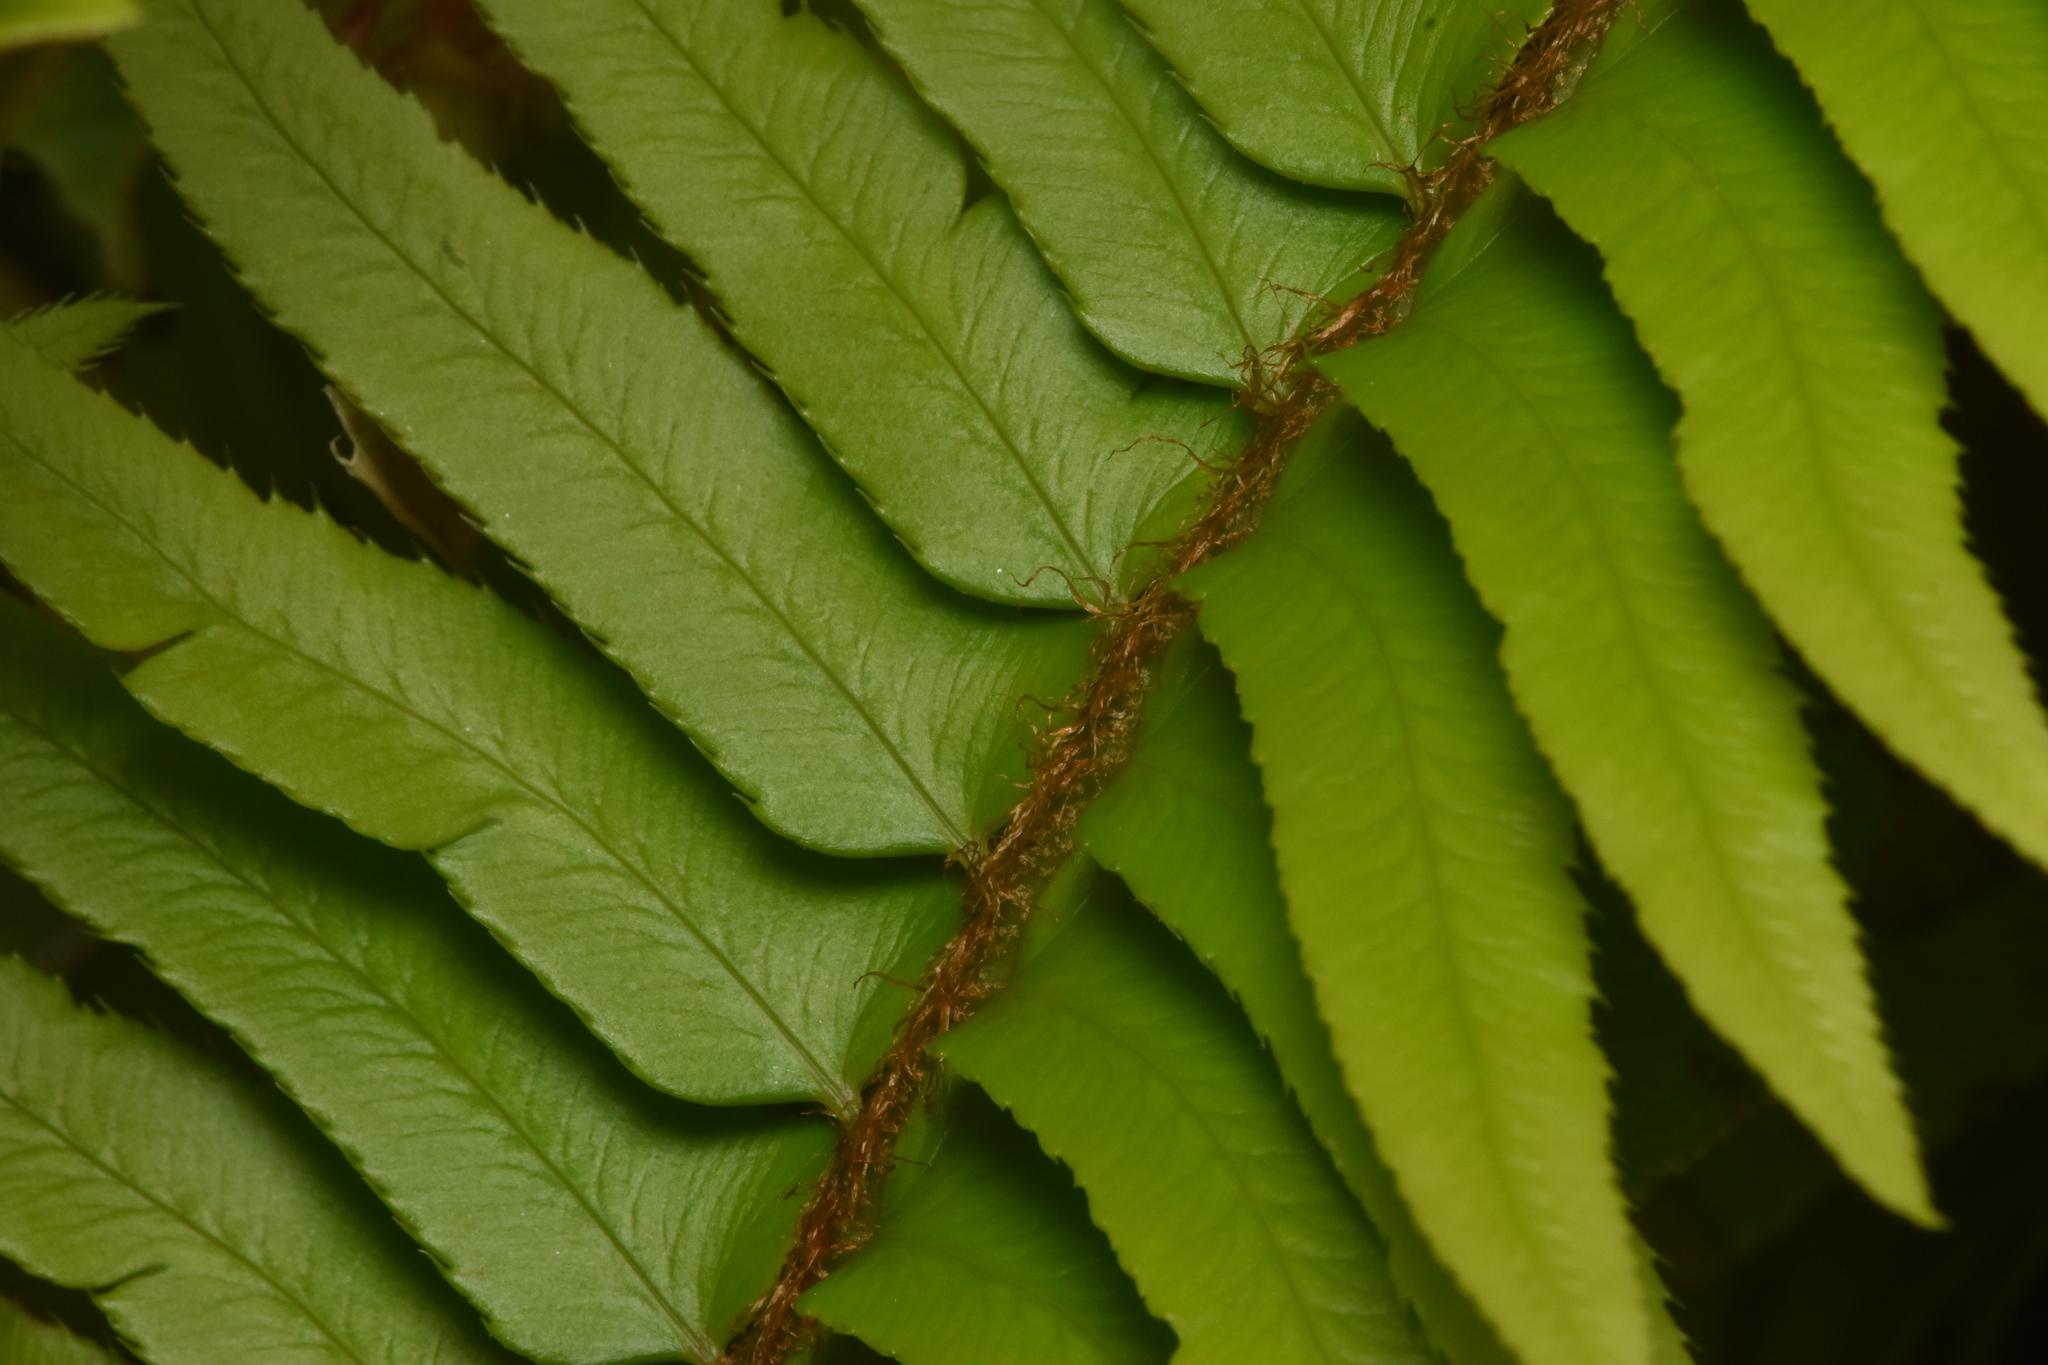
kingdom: Plantae
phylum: Tracheophyta
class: Polypodiopsida
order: Polypodiales
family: Dryopteridaceae
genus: Polystichum
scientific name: Polystichum munitum
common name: Western sword-fern
